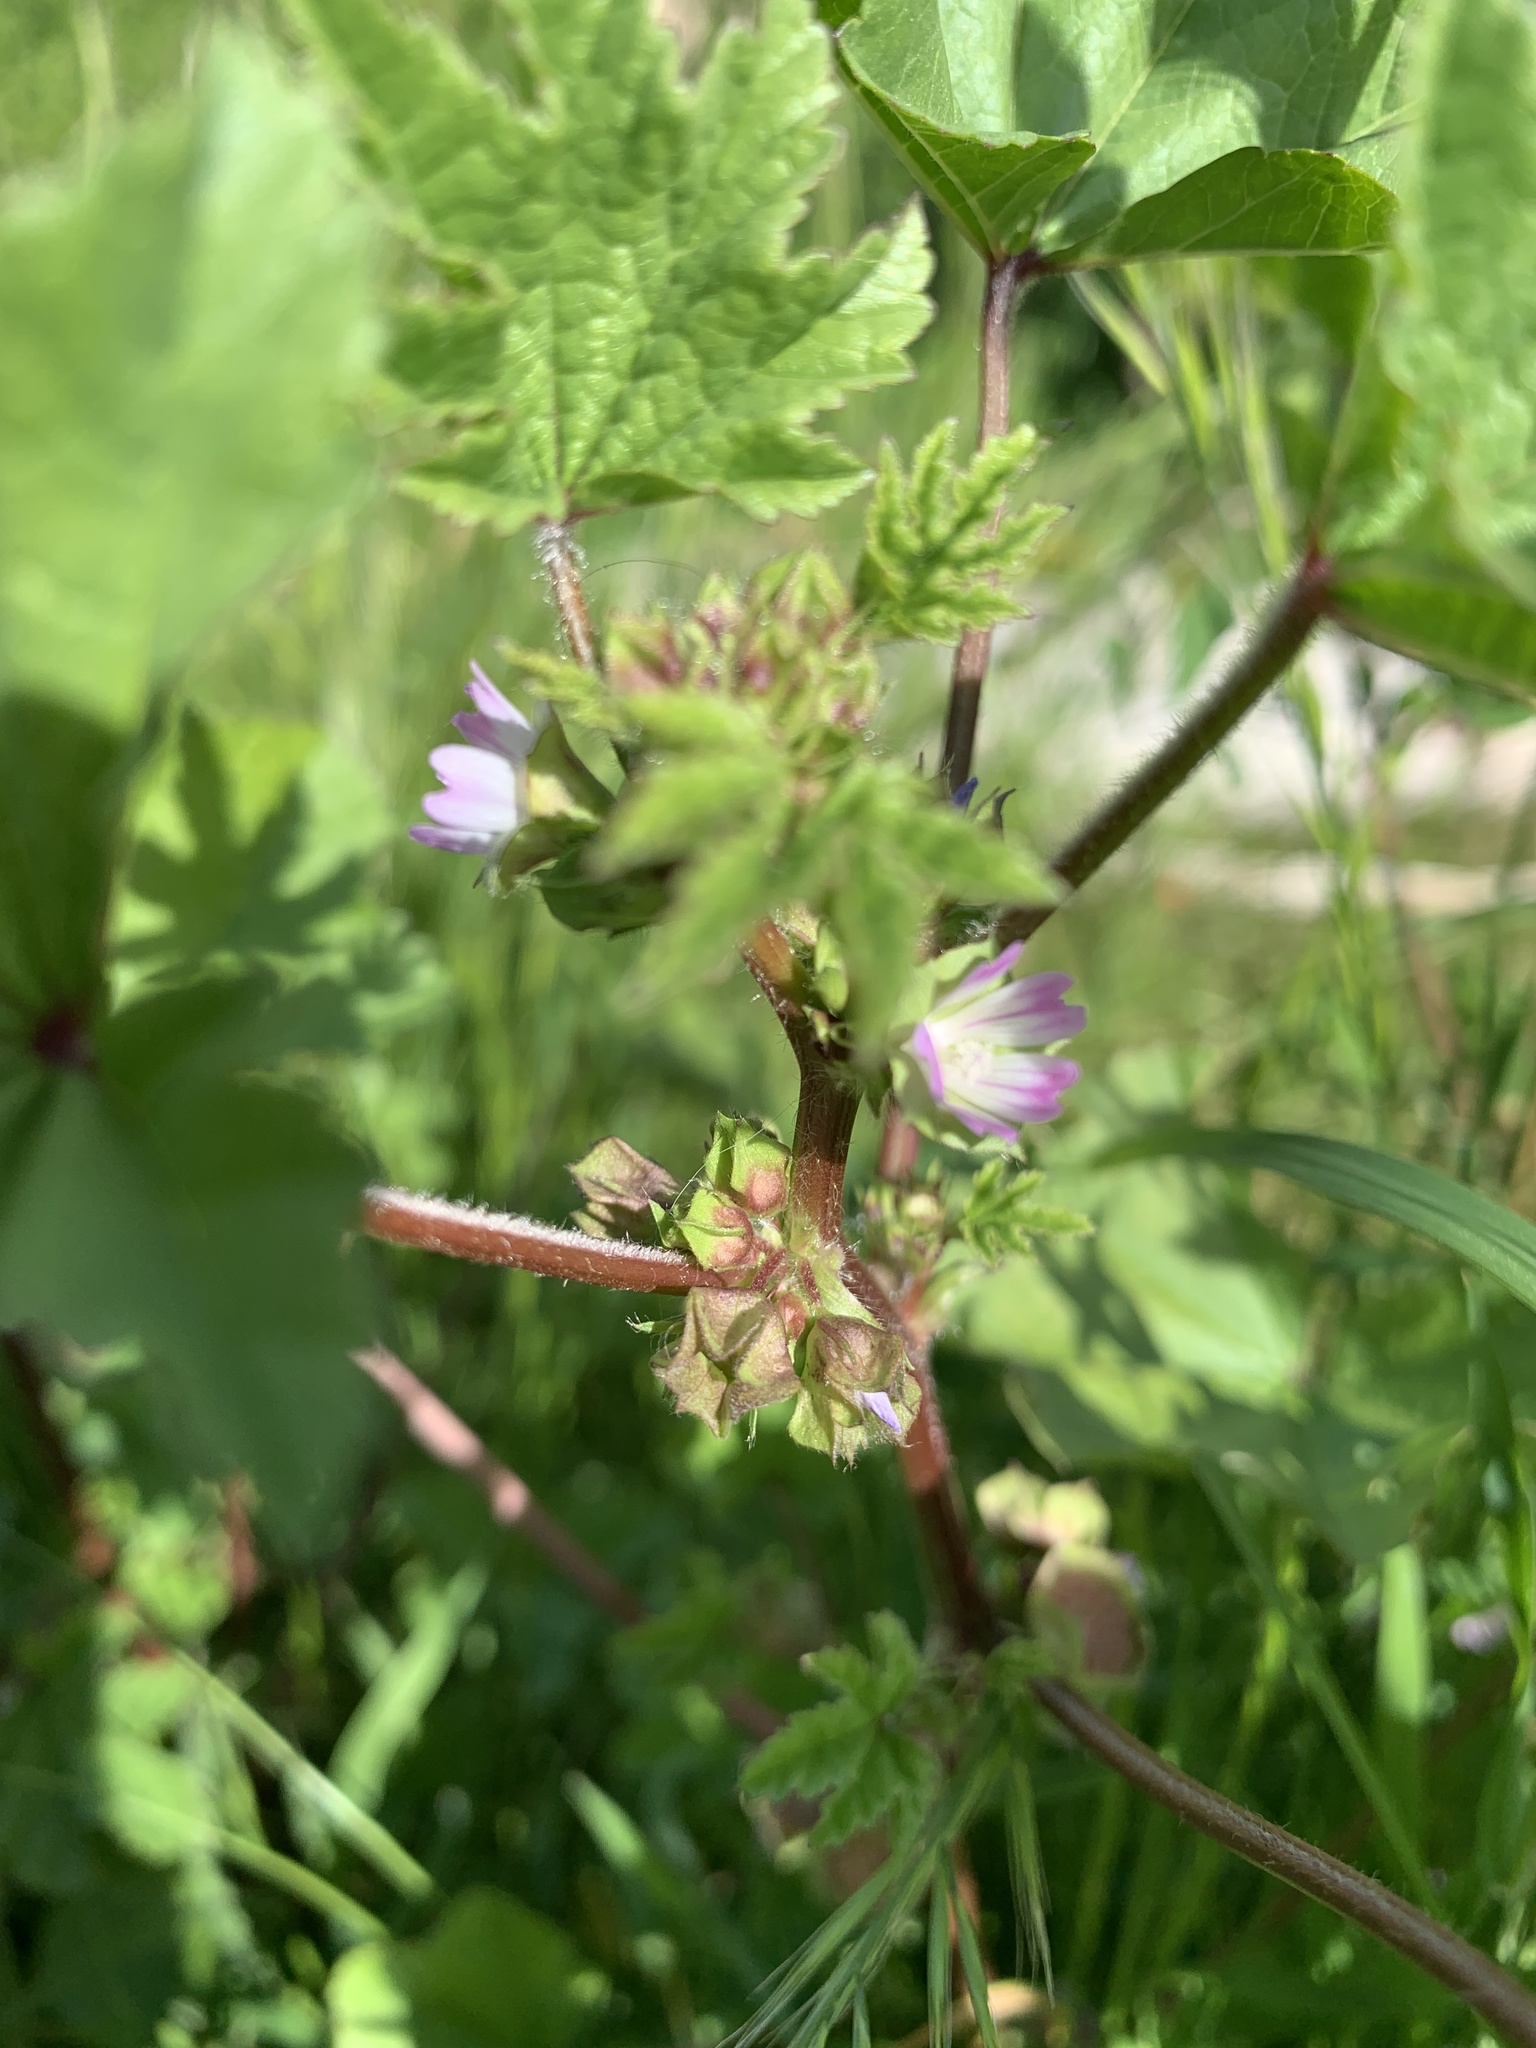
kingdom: Plantae
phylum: Tracheophyta
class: Magnoliopsida
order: Malvales
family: Malvaceae
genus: Malva
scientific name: Malva parviflora
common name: Least mallow
